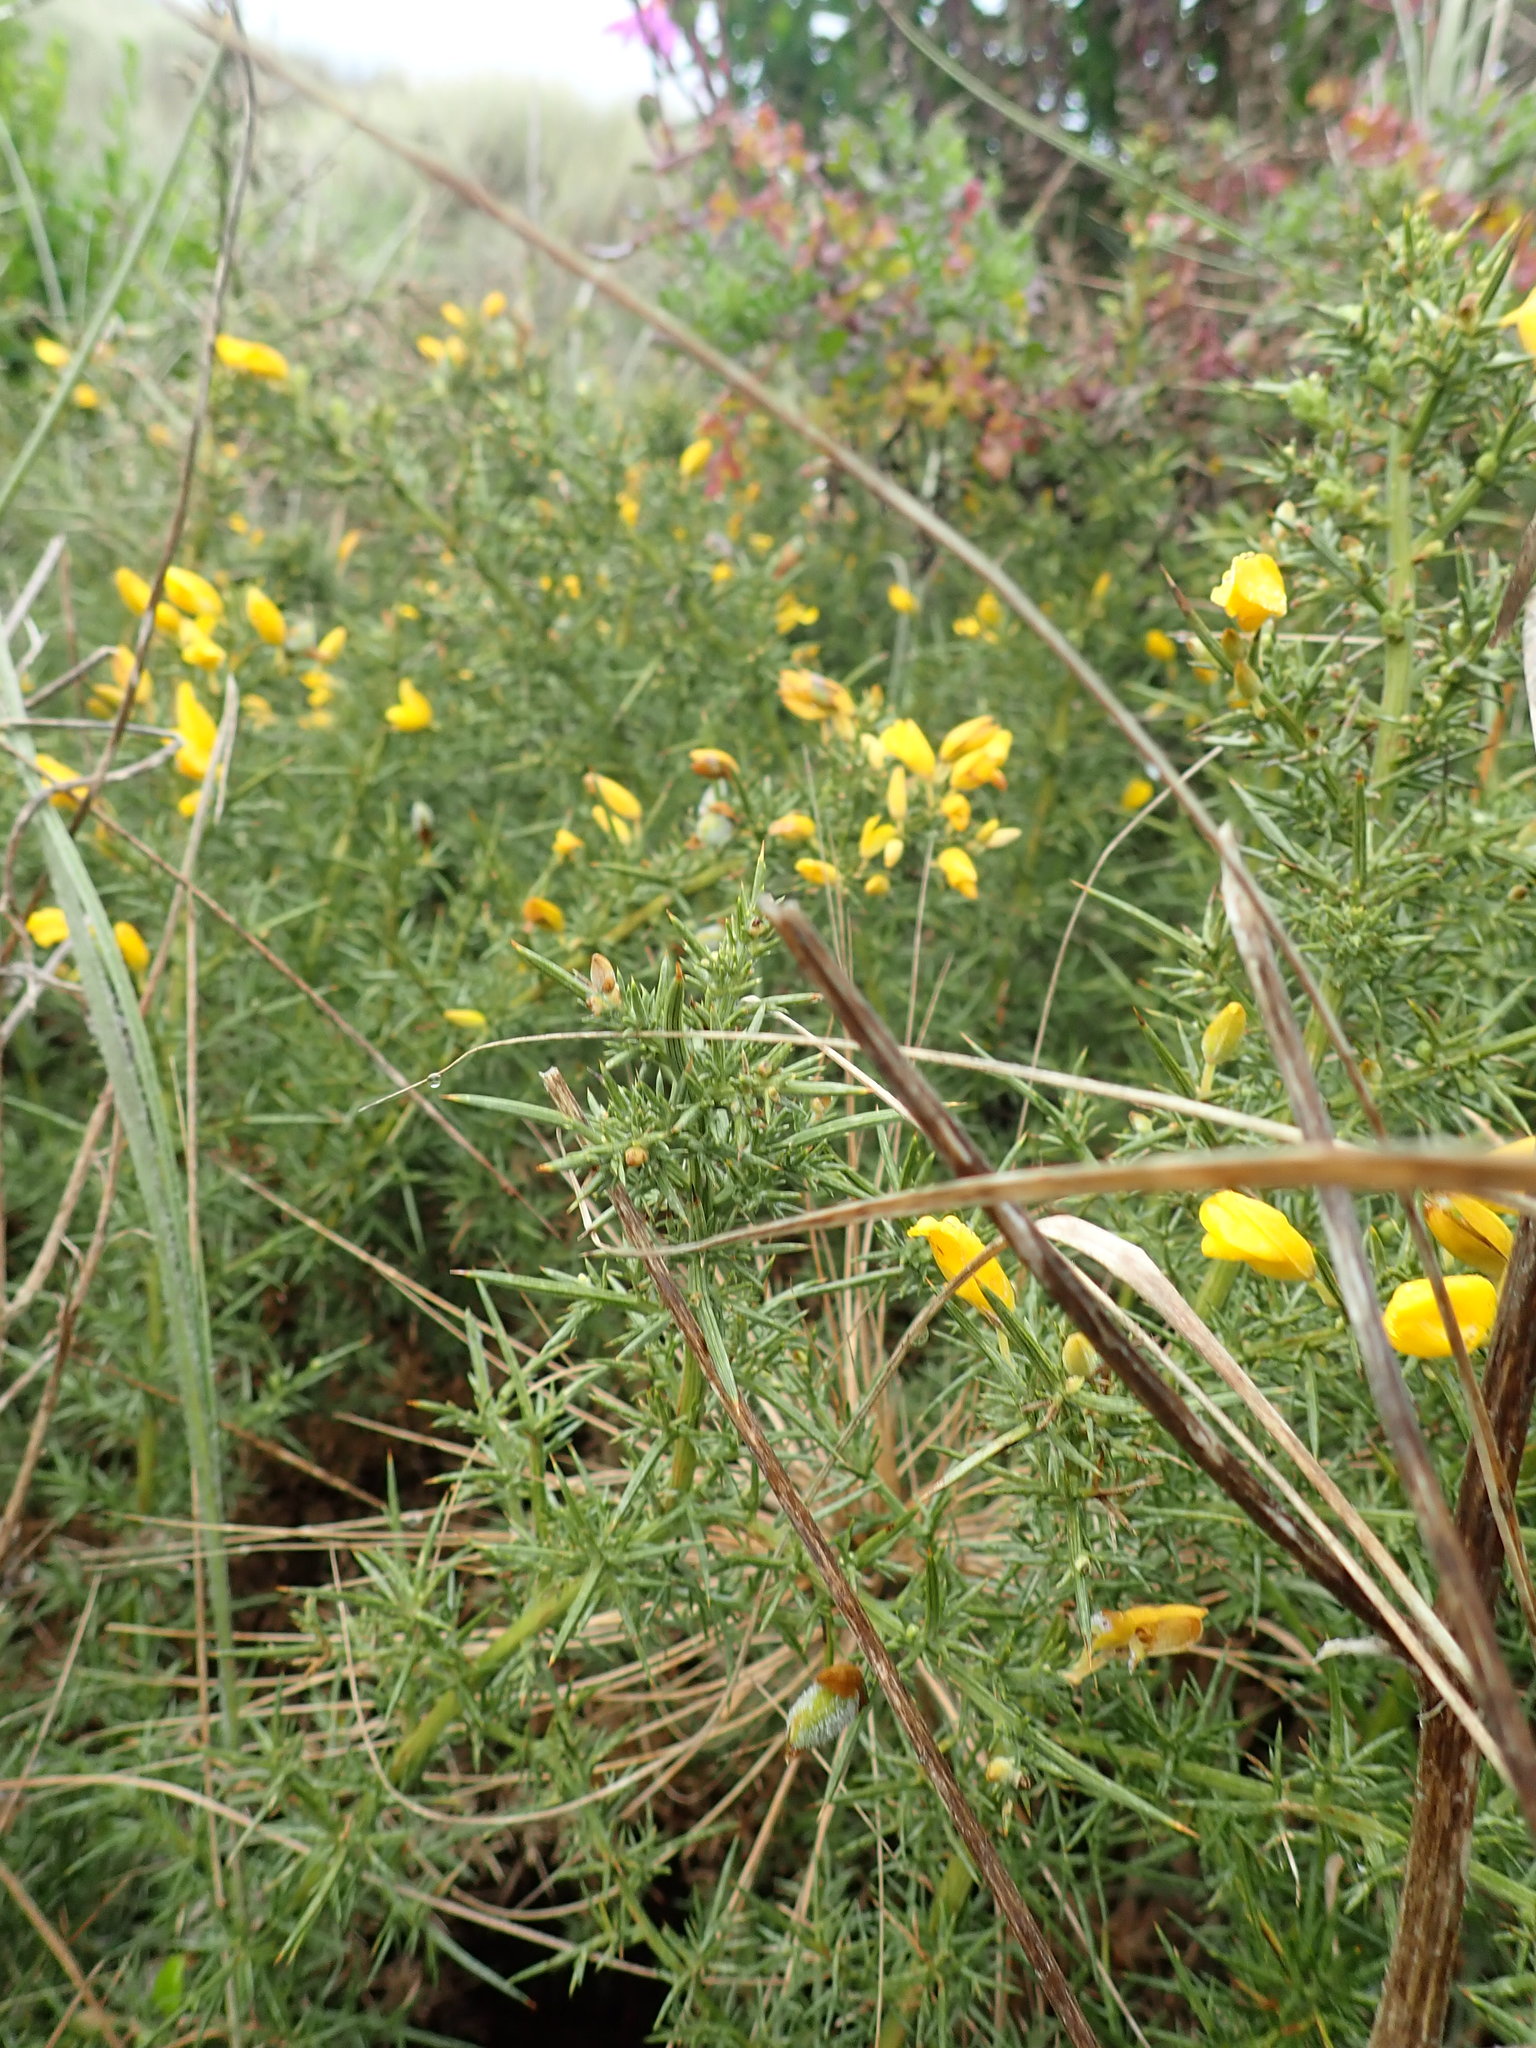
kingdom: Plantae
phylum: Tracheophyta
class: Magnoliopsida
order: Fabales
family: Fabaceae
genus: Ulex
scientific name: Ulex europaeus
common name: Common gorse
